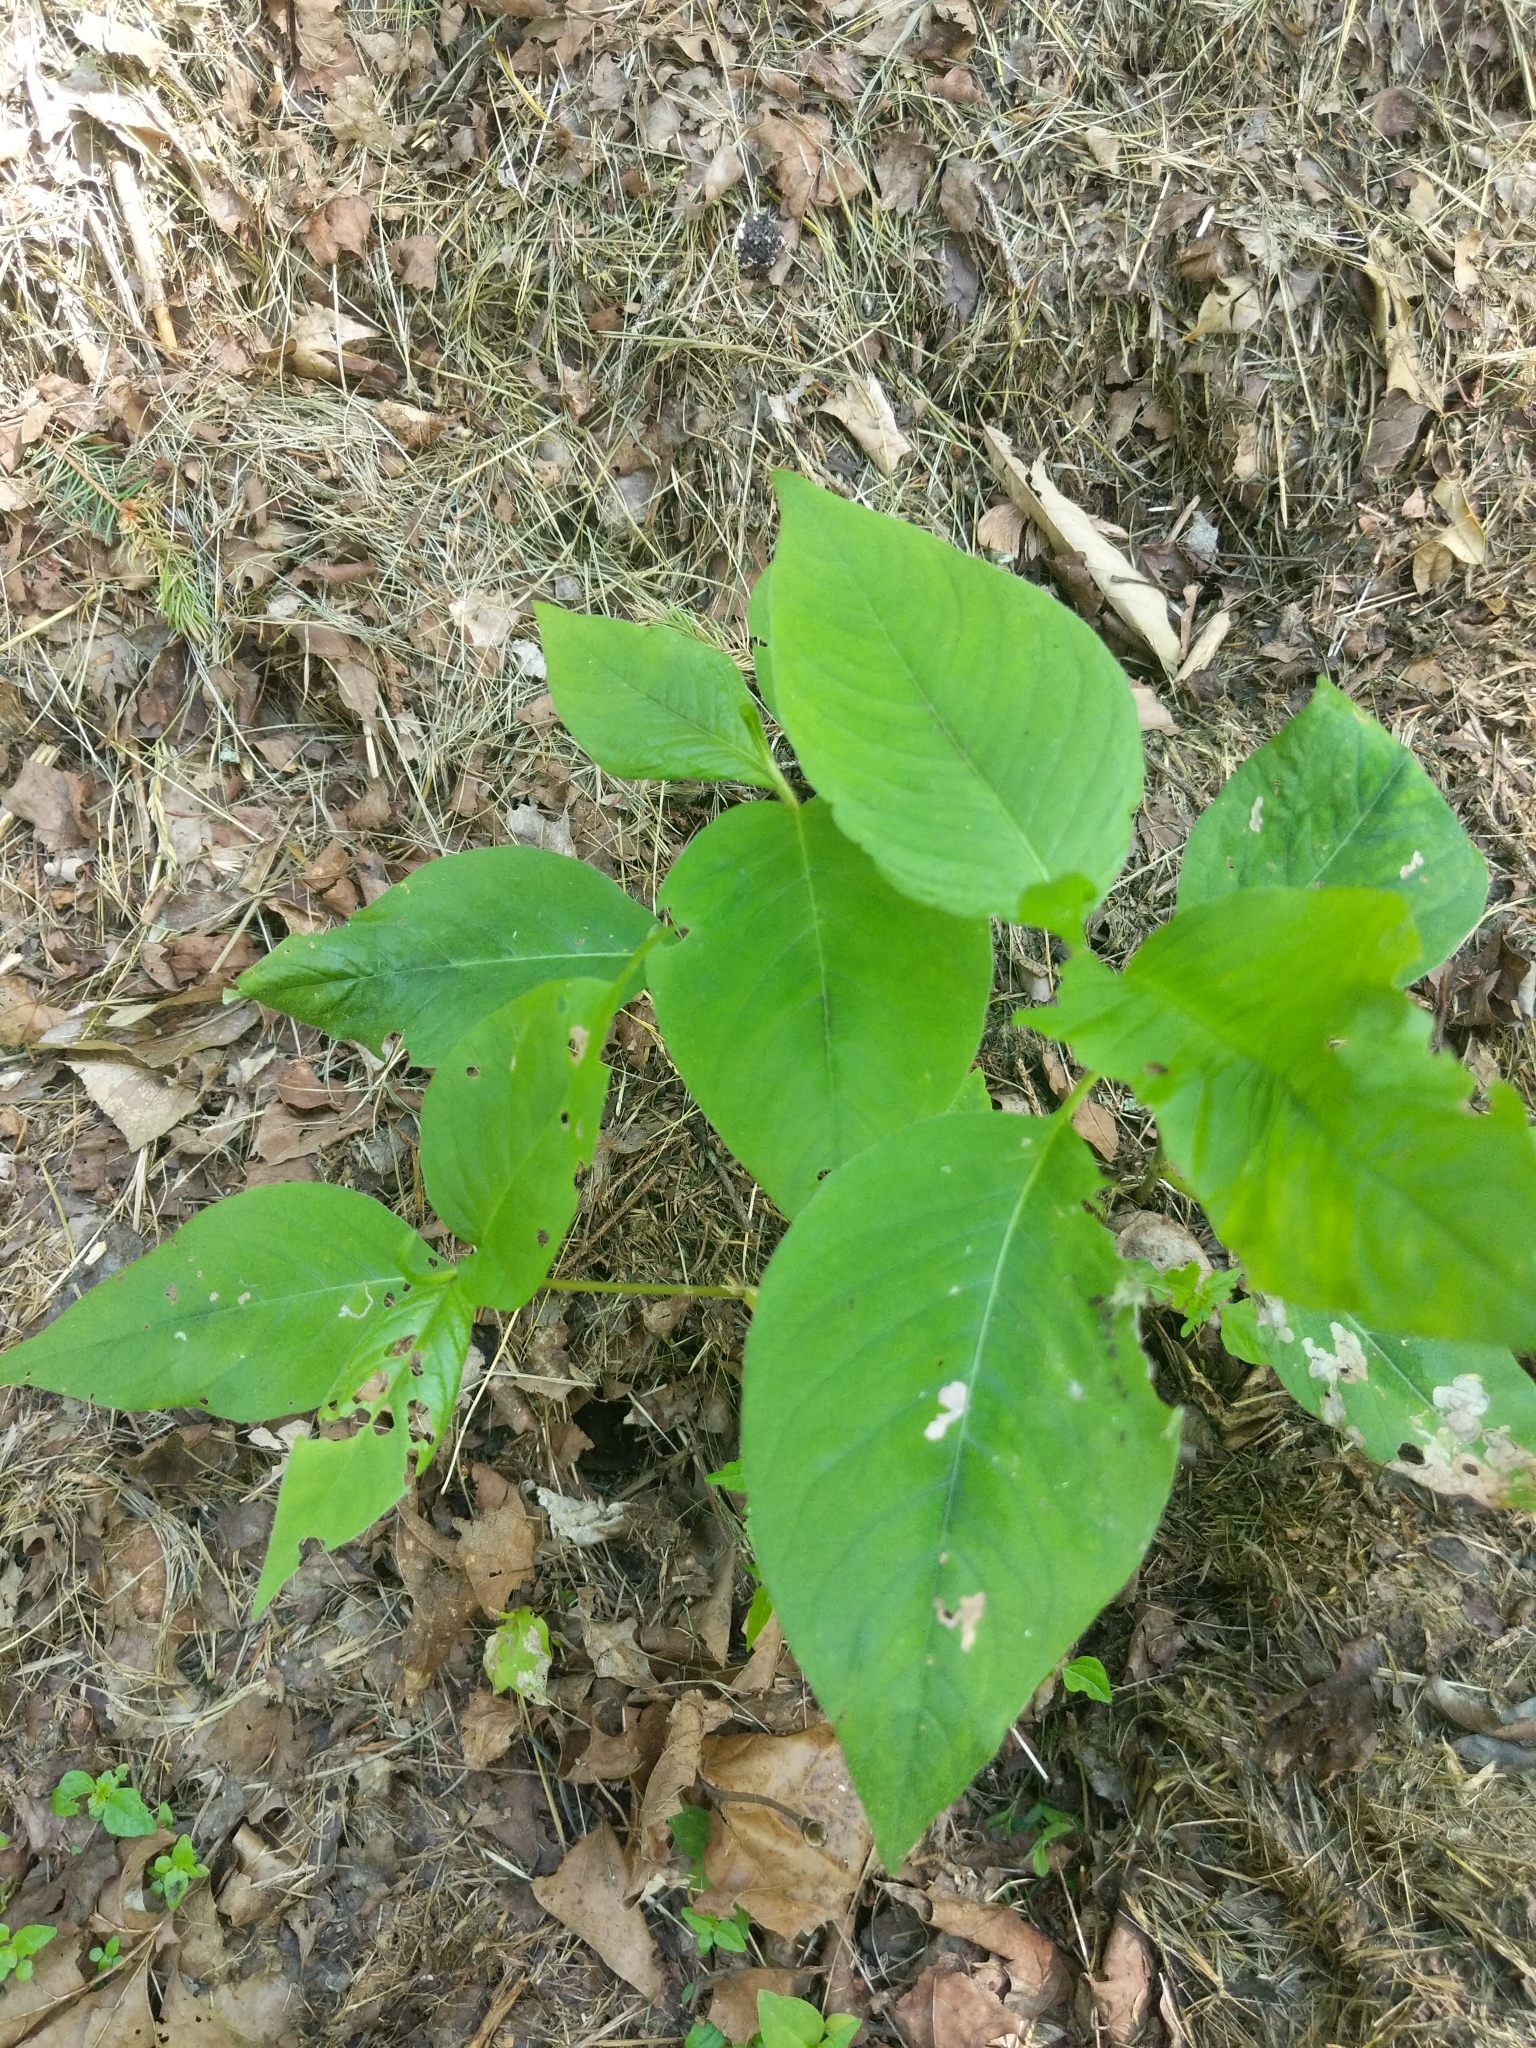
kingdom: Plantae
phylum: Tracheophyta
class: Magnoliopsida
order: Caryophyllales
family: Polygonaceae
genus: Persicaria
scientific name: Persicaria virginiana
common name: Jumpseed
